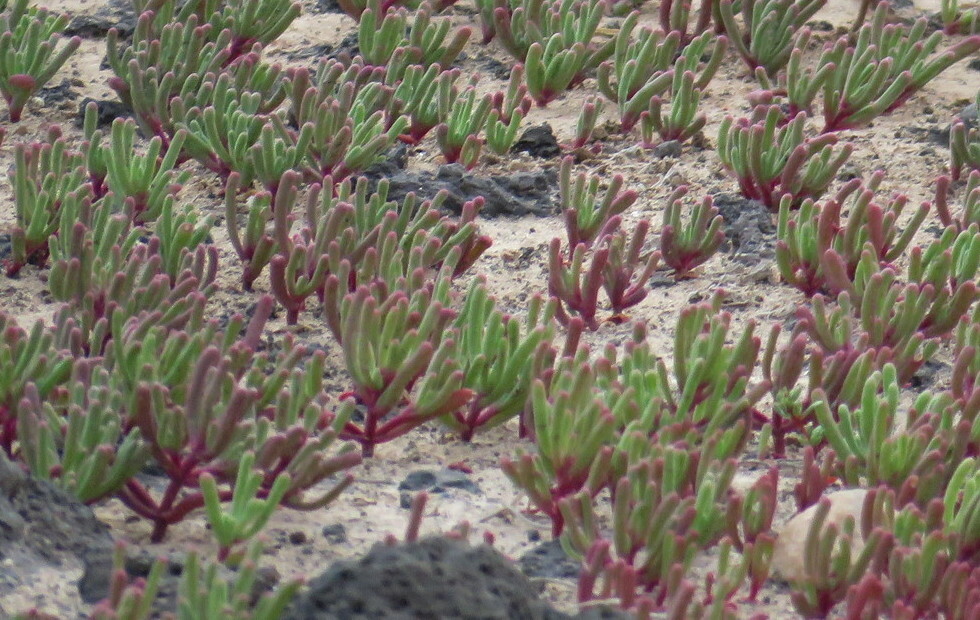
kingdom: Plantae
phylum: Tracheophyta
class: Magnoliopsida
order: Caryophyllales
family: Aizoaceae
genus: Mesembryanthemum
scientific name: Mesembryanthemum nodiflorum
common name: Slenderleaf iceplant
